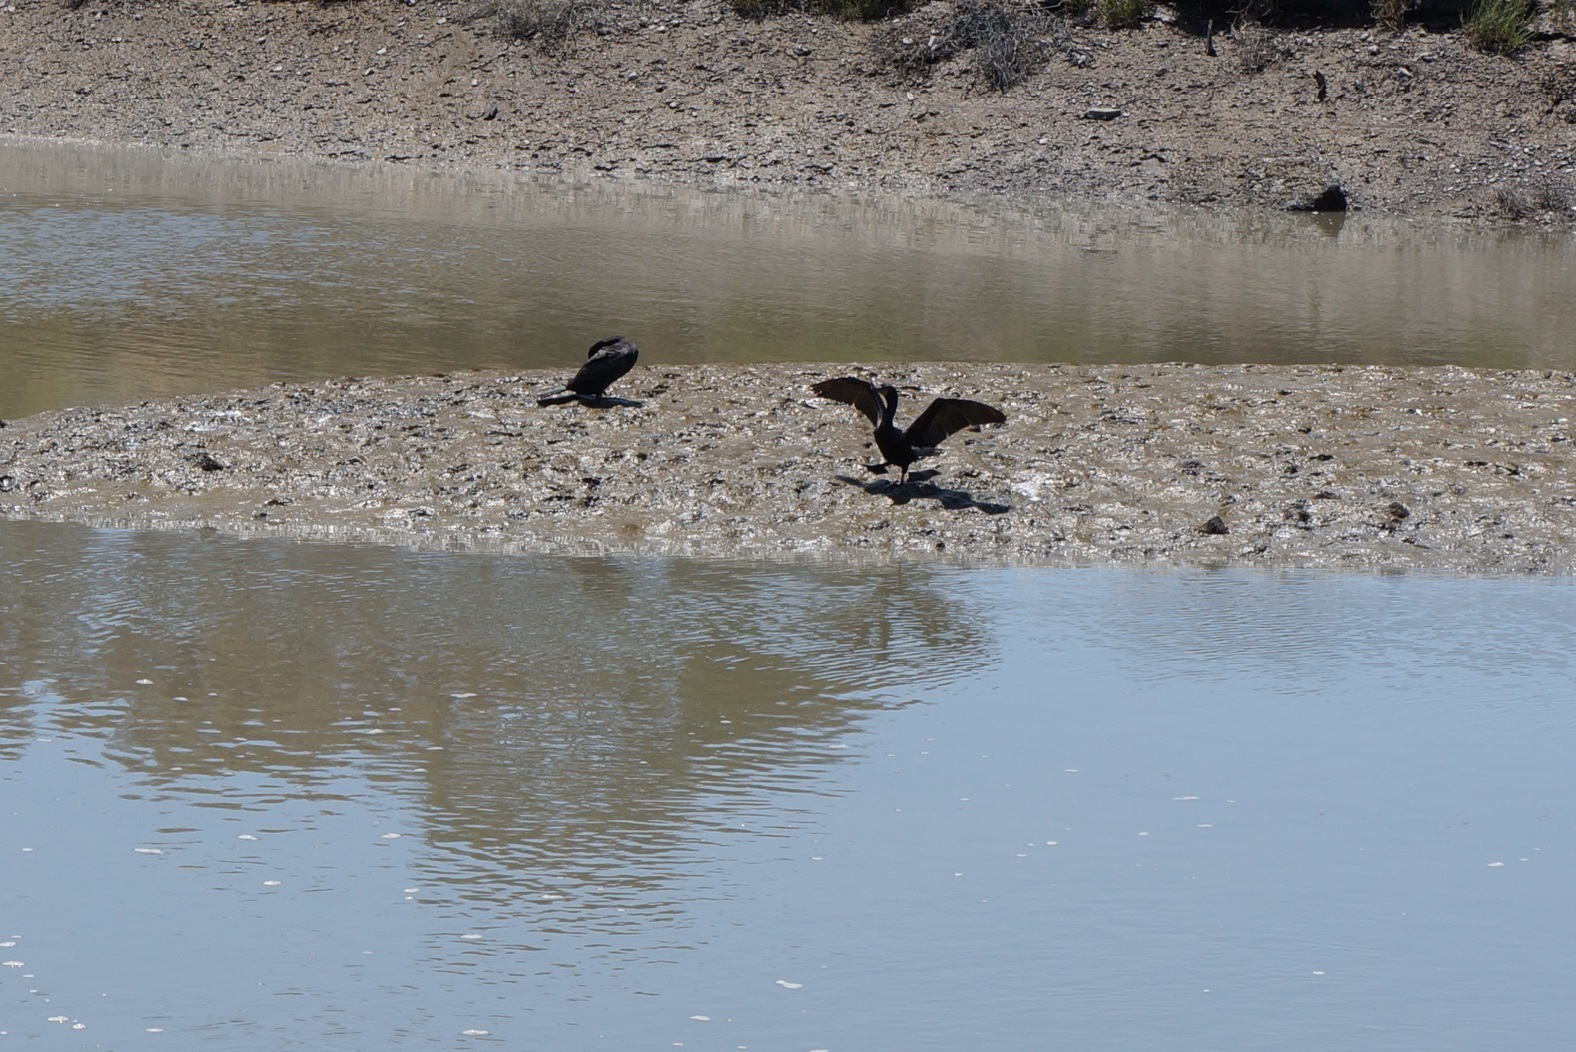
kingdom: Animalia
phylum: Chordata
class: Aves
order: Suliformes
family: Phalacrocoracidae
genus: Phalacrocorax
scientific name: Phalacrocorax auritus
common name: Double-crested cormorant
